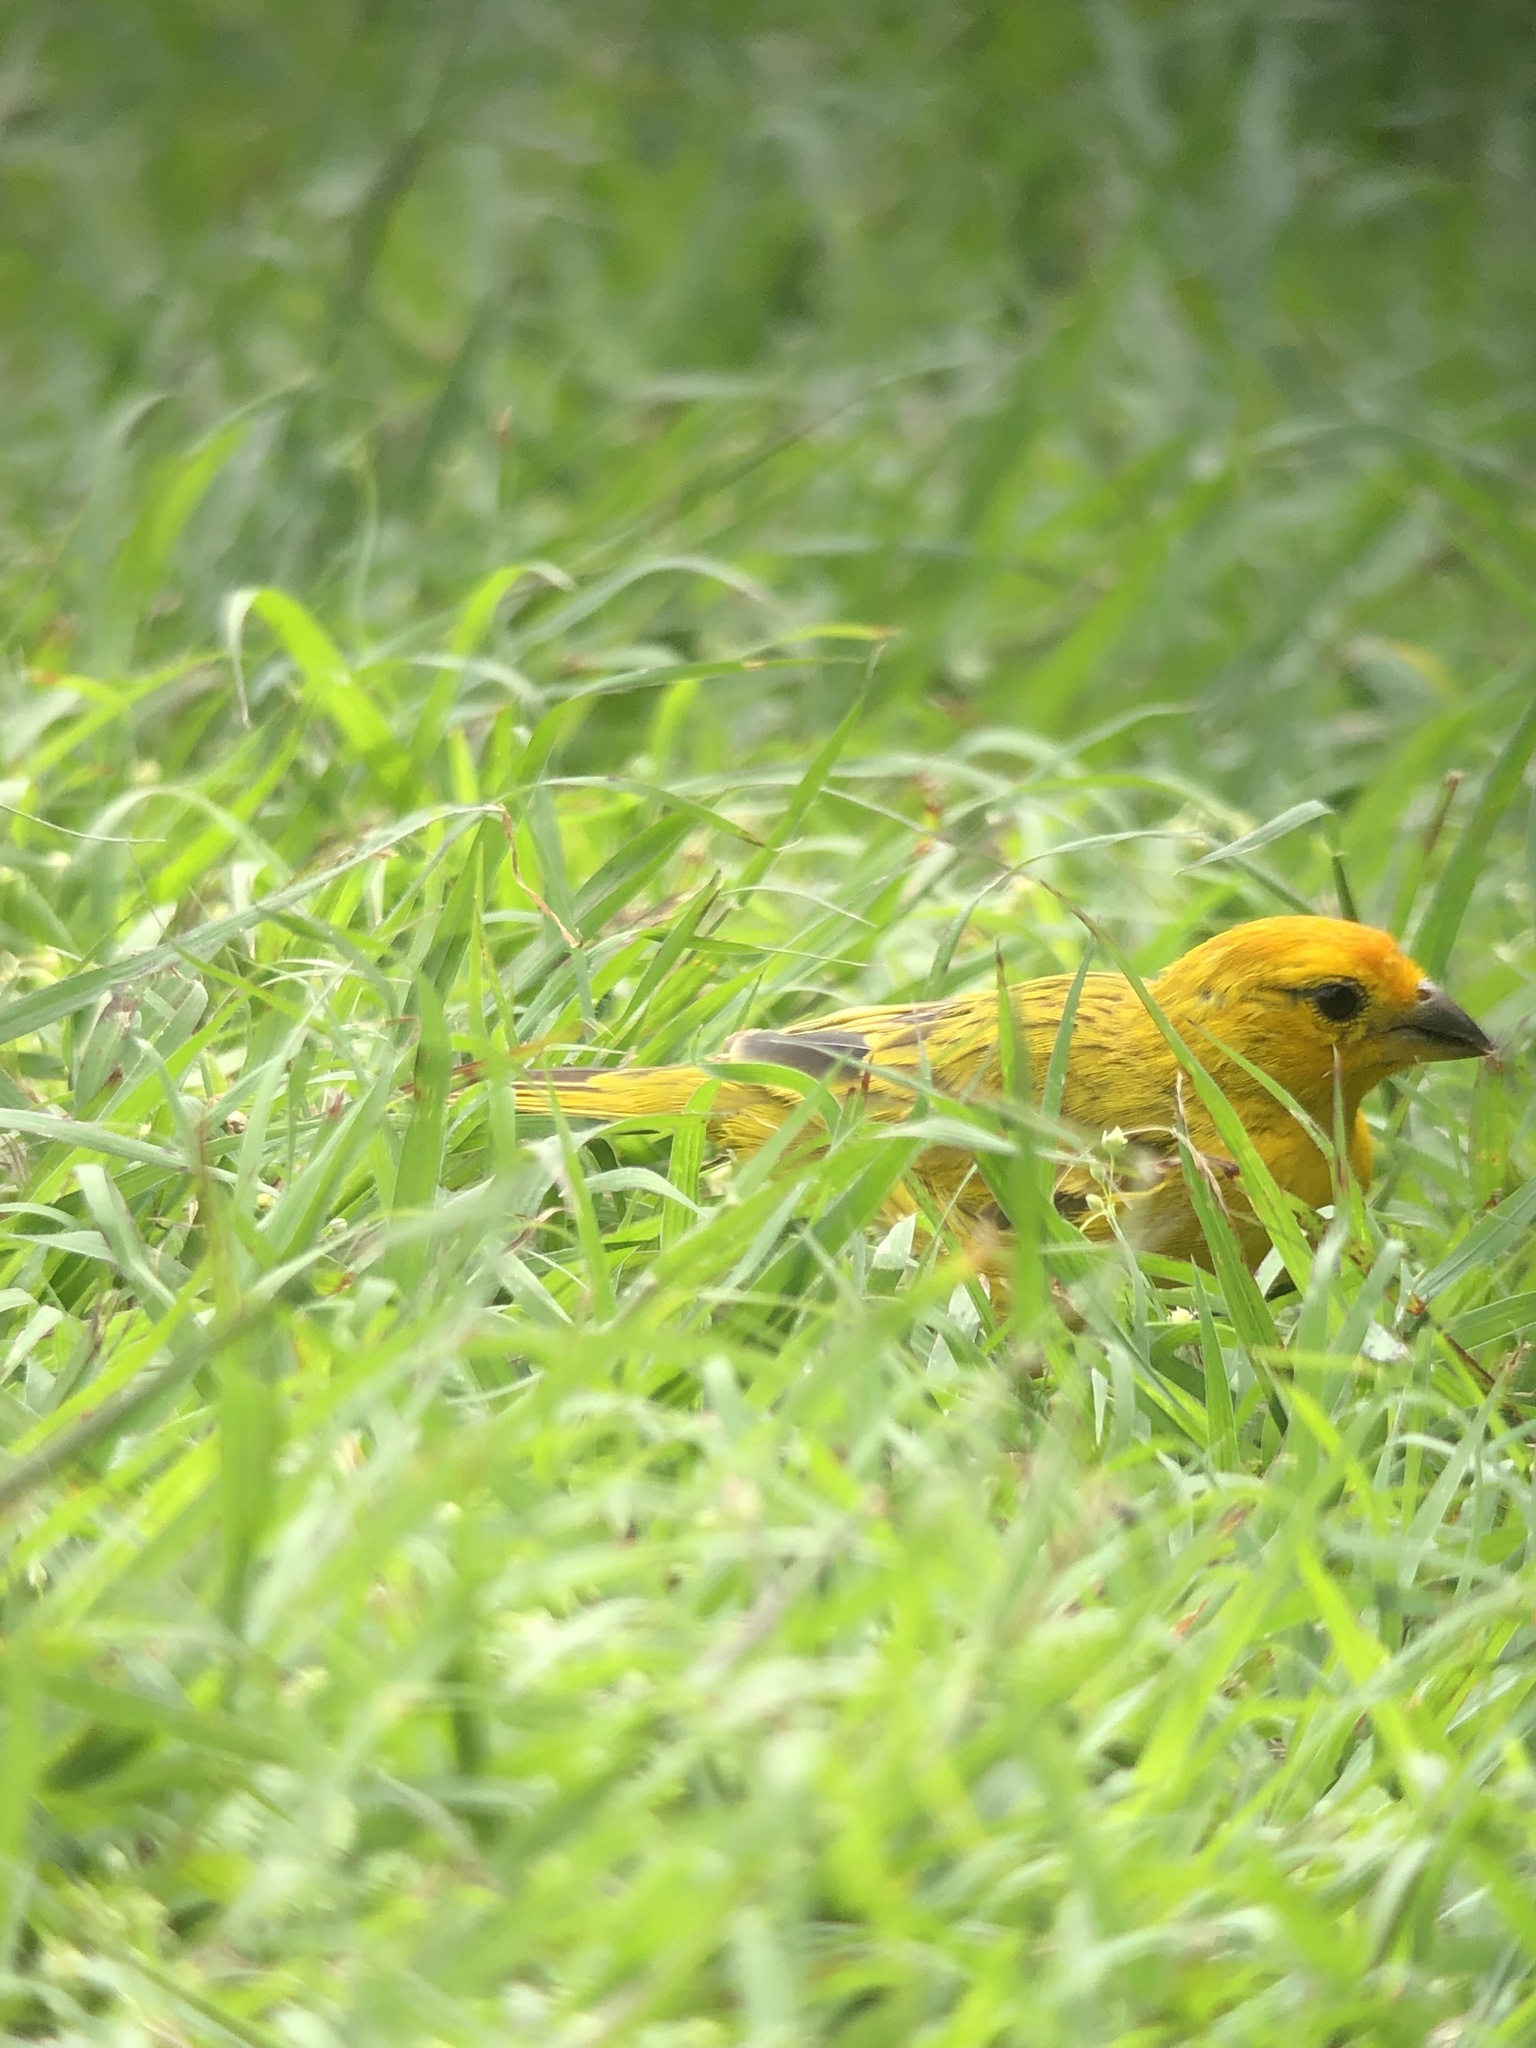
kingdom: Animalia
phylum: Chordata
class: Aves
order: Passeriformes
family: Thraupidae
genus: Sicalis
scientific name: Sicalis flaveola
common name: Saffron finch
